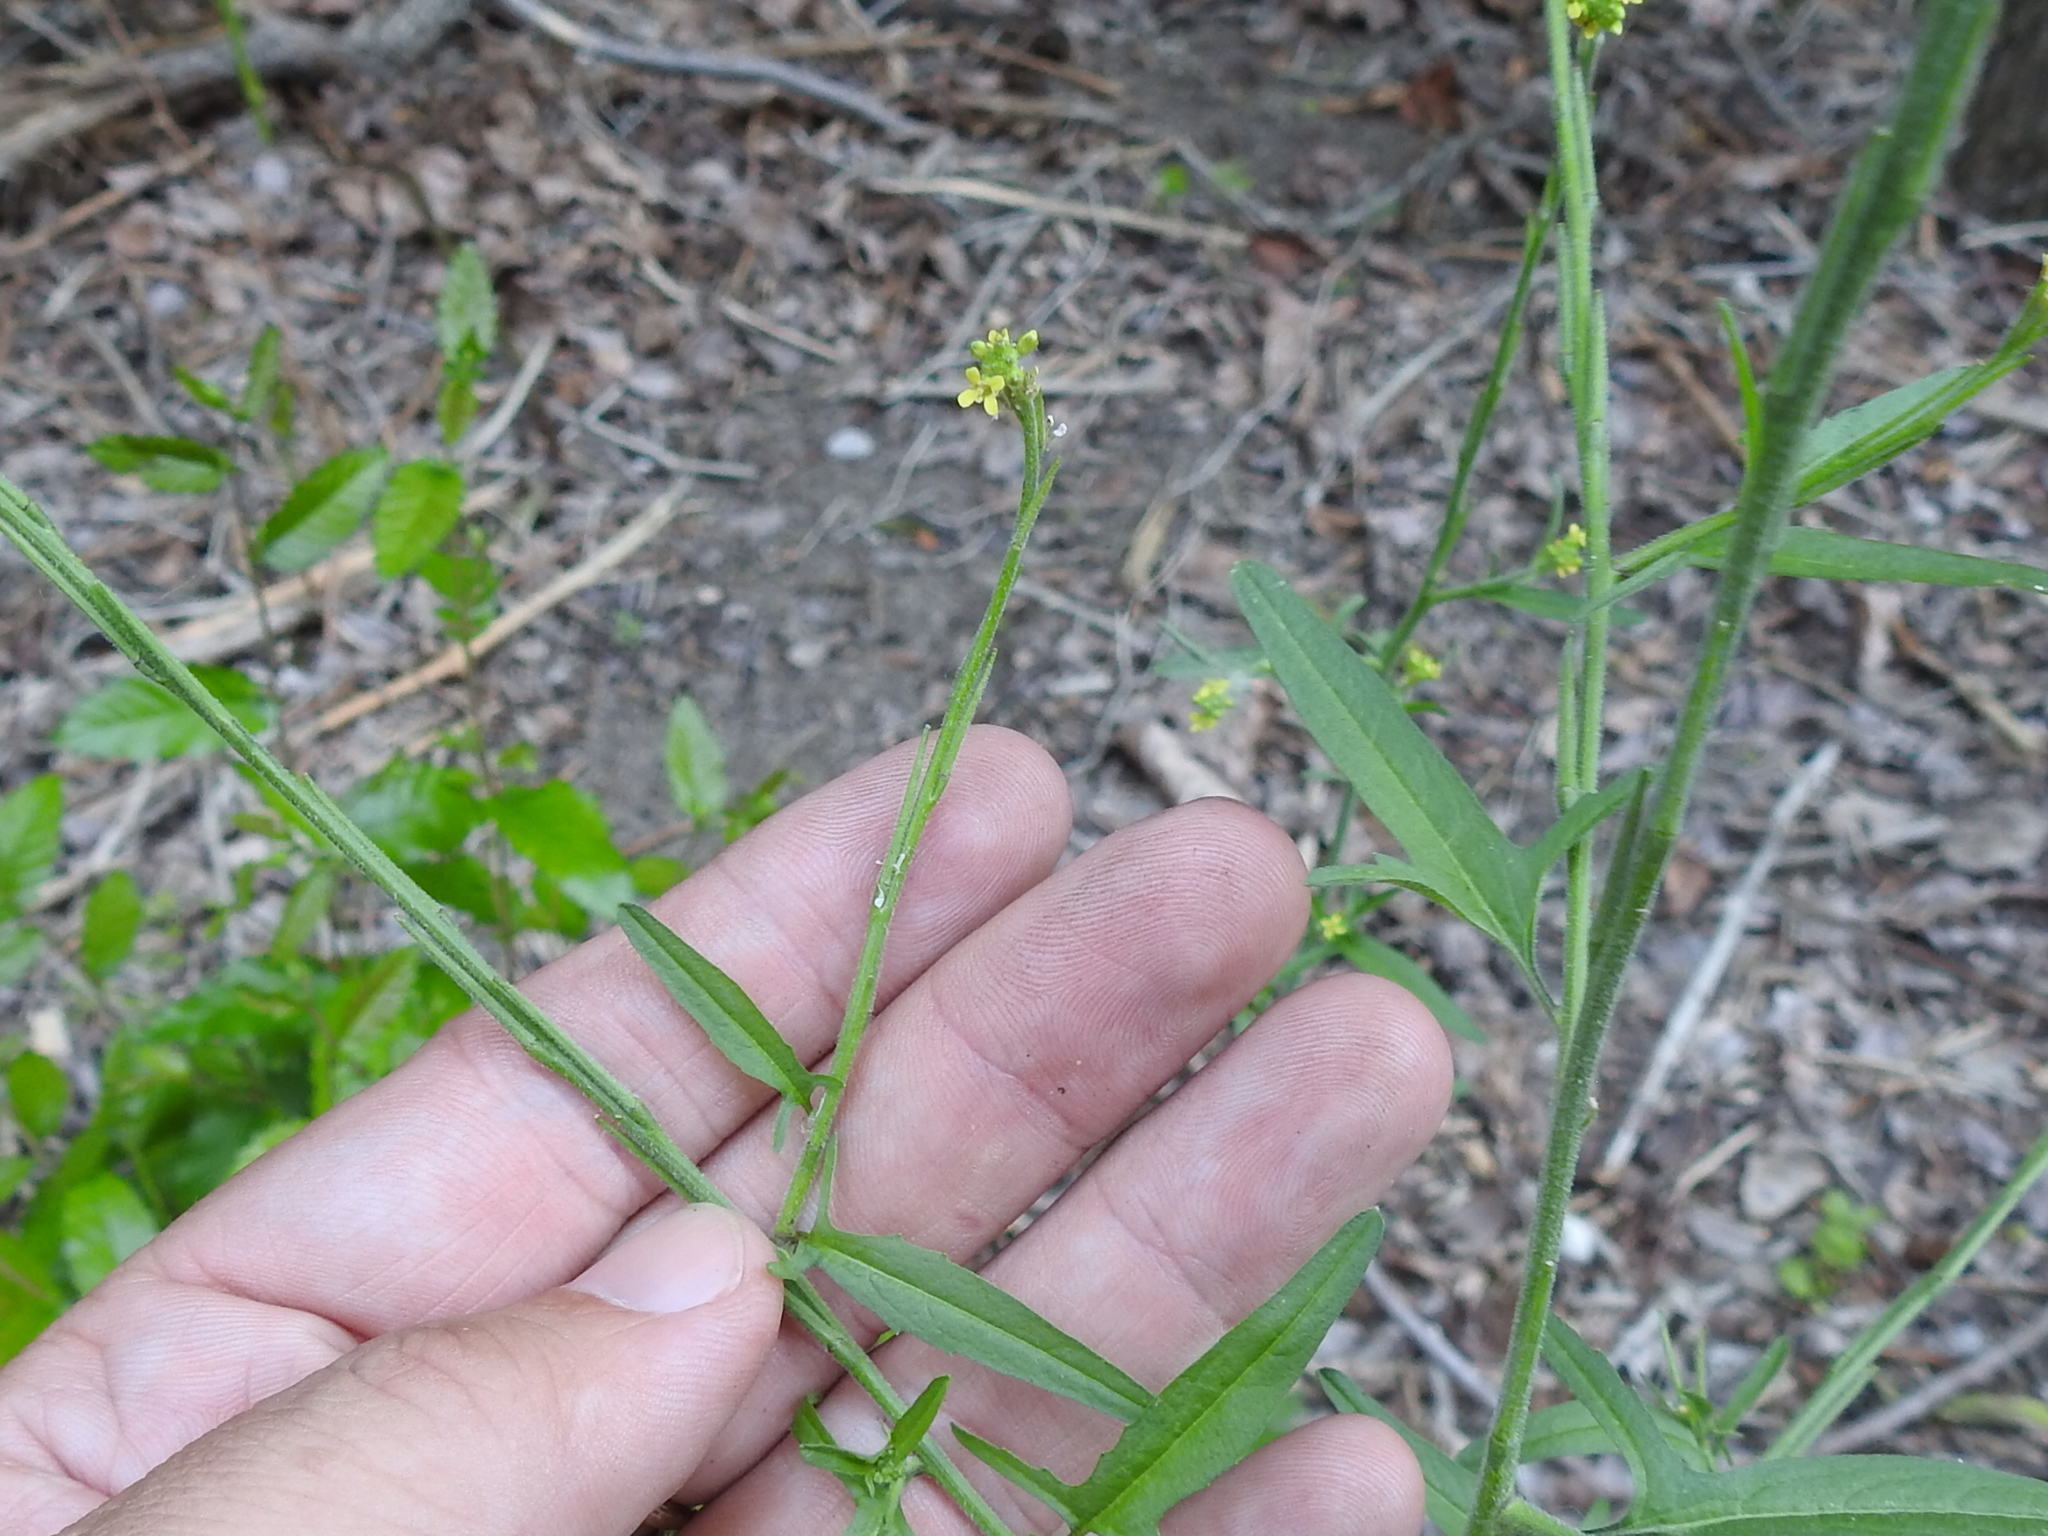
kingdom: Plantae
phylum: Tracheophyta
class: Magnoliopsida
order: Brassicales
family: Brassicaceae
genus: Sisymbrium
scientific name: Sisymbrium officinale
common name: Hedge mustard
